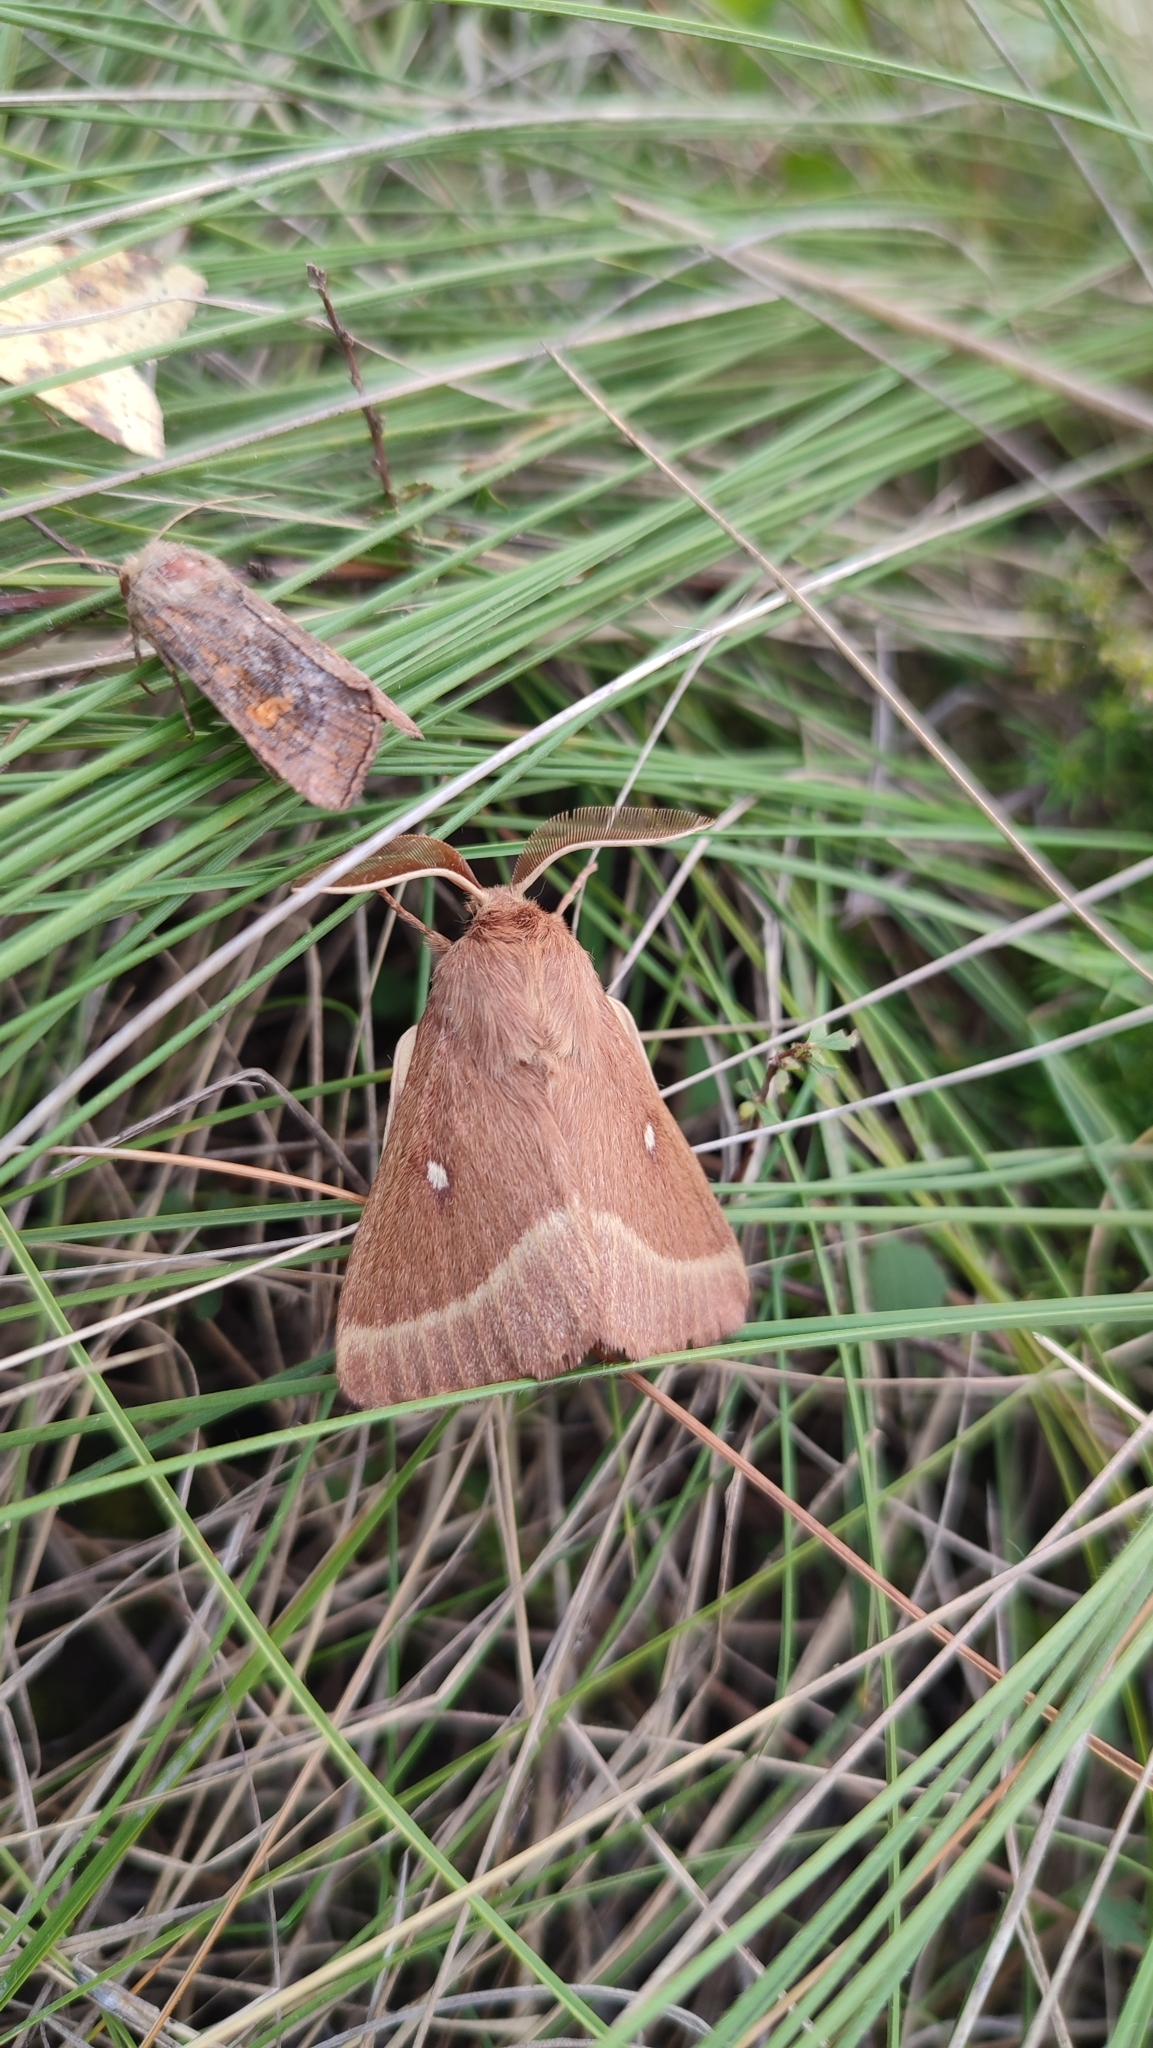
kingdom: Animalia
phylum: Arthropoda
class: Insecta
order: Lepidoptera
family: Lasiocampidae
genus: Lasiocampa
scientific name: Lasiocampa trifolii
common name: Grass eggar
